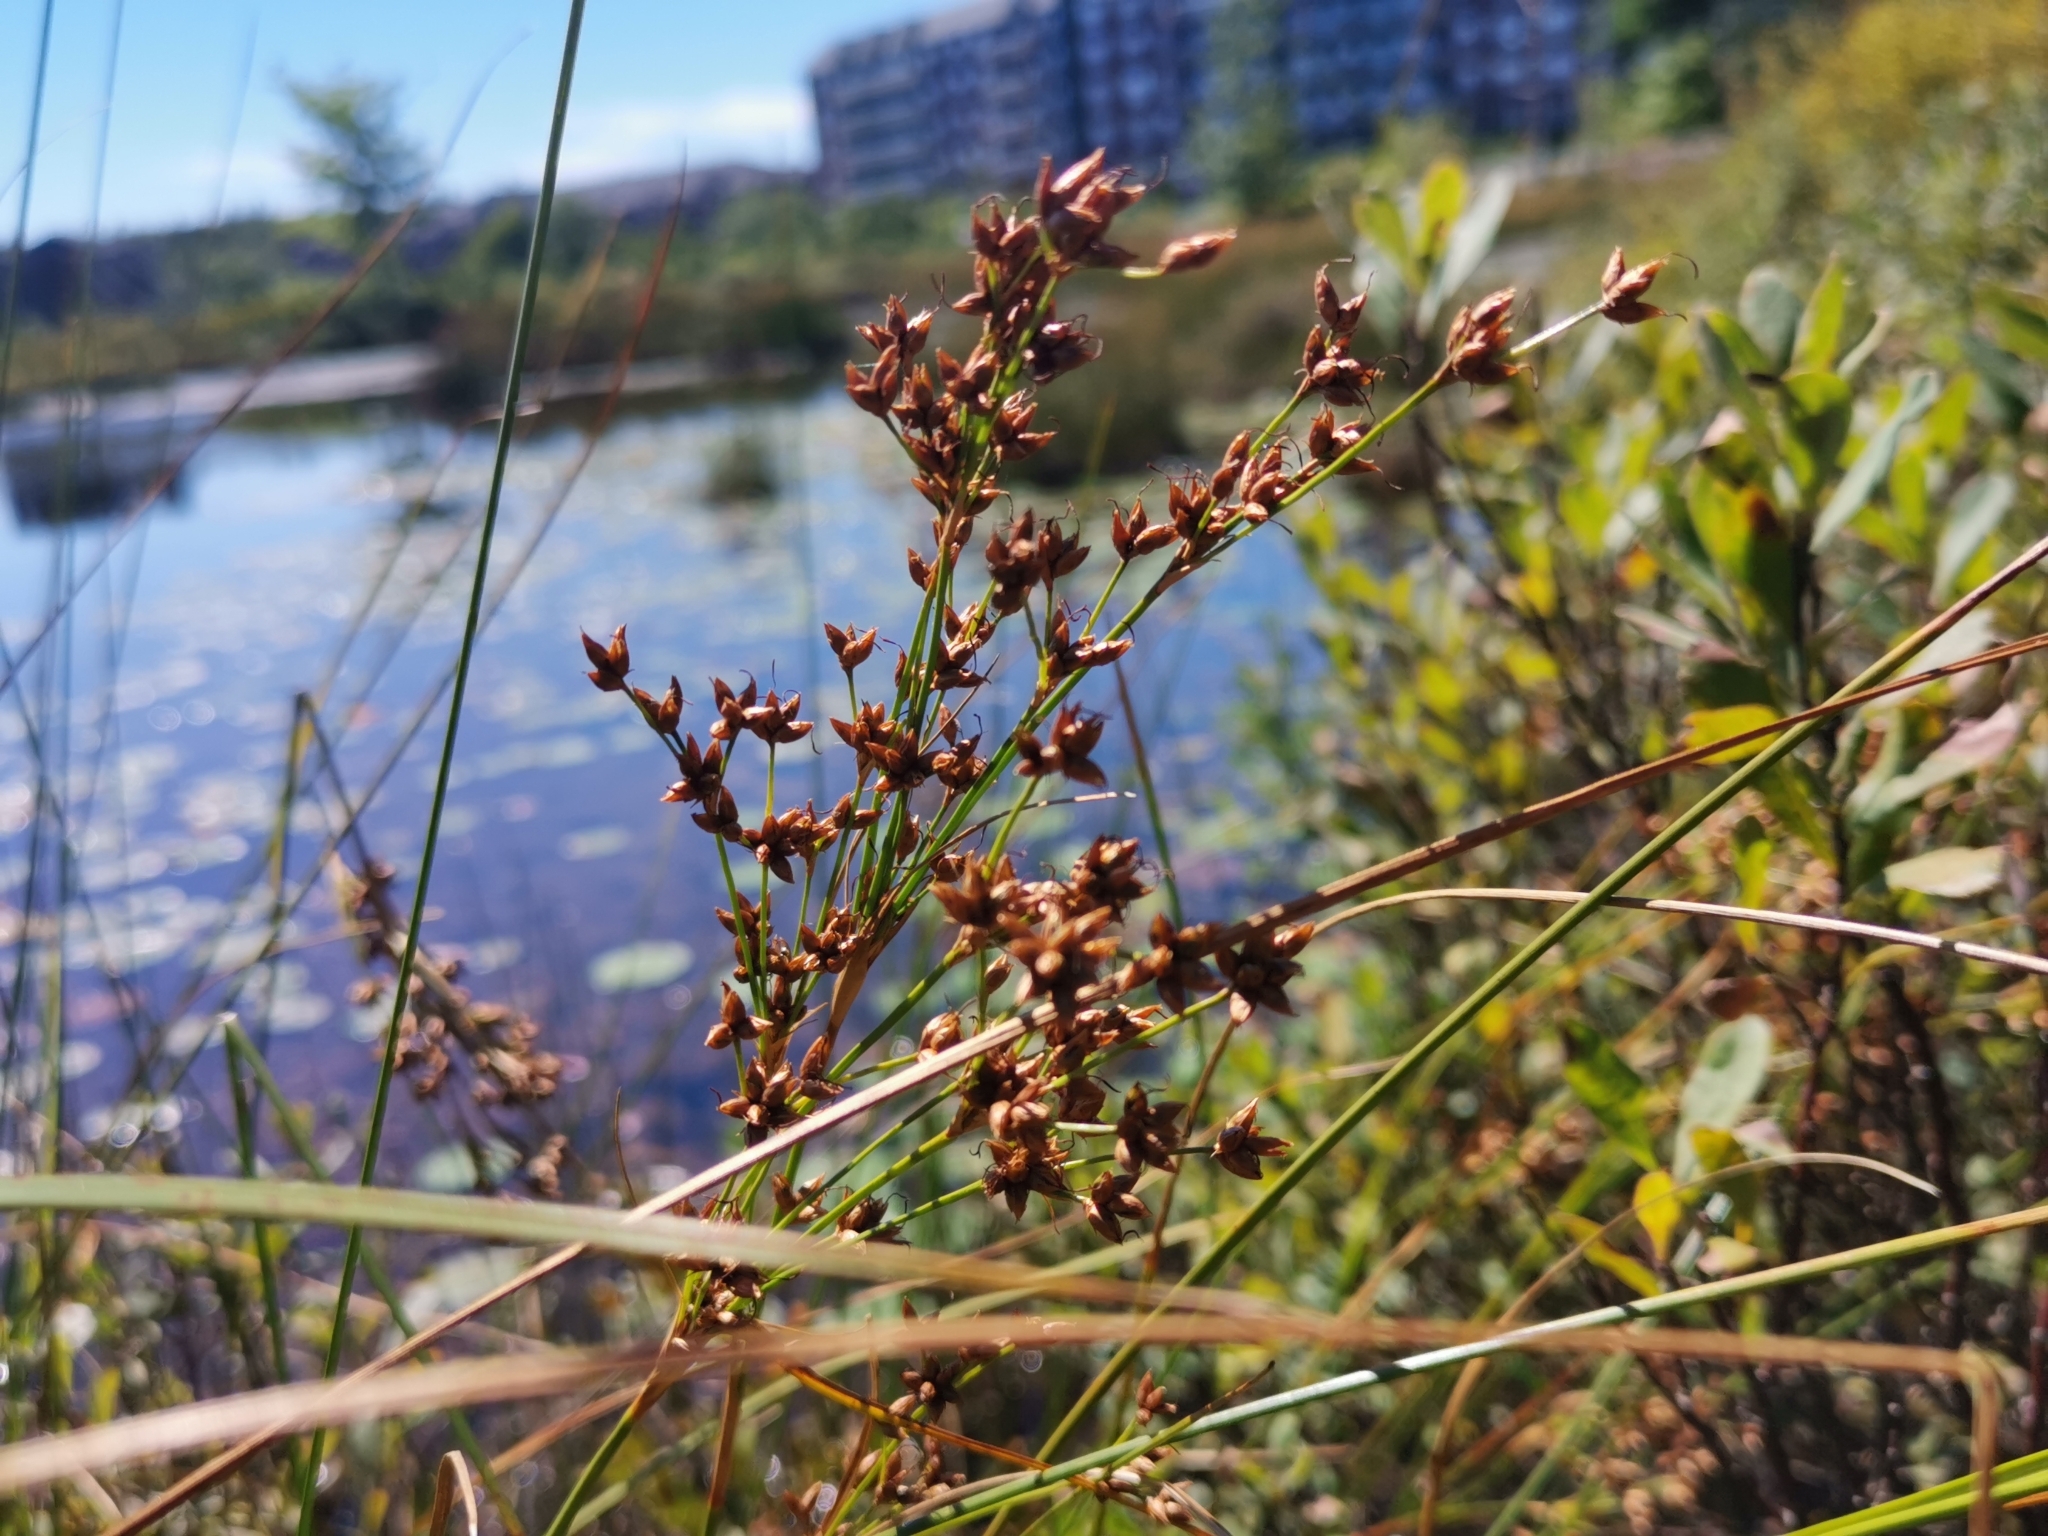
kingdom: Plantae
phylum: Tracheophyta
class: Liliopsida
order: Poales
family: Cyperaceae
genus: Cladium
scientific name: Cladium mariscoides
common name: Smooth sawgrass
